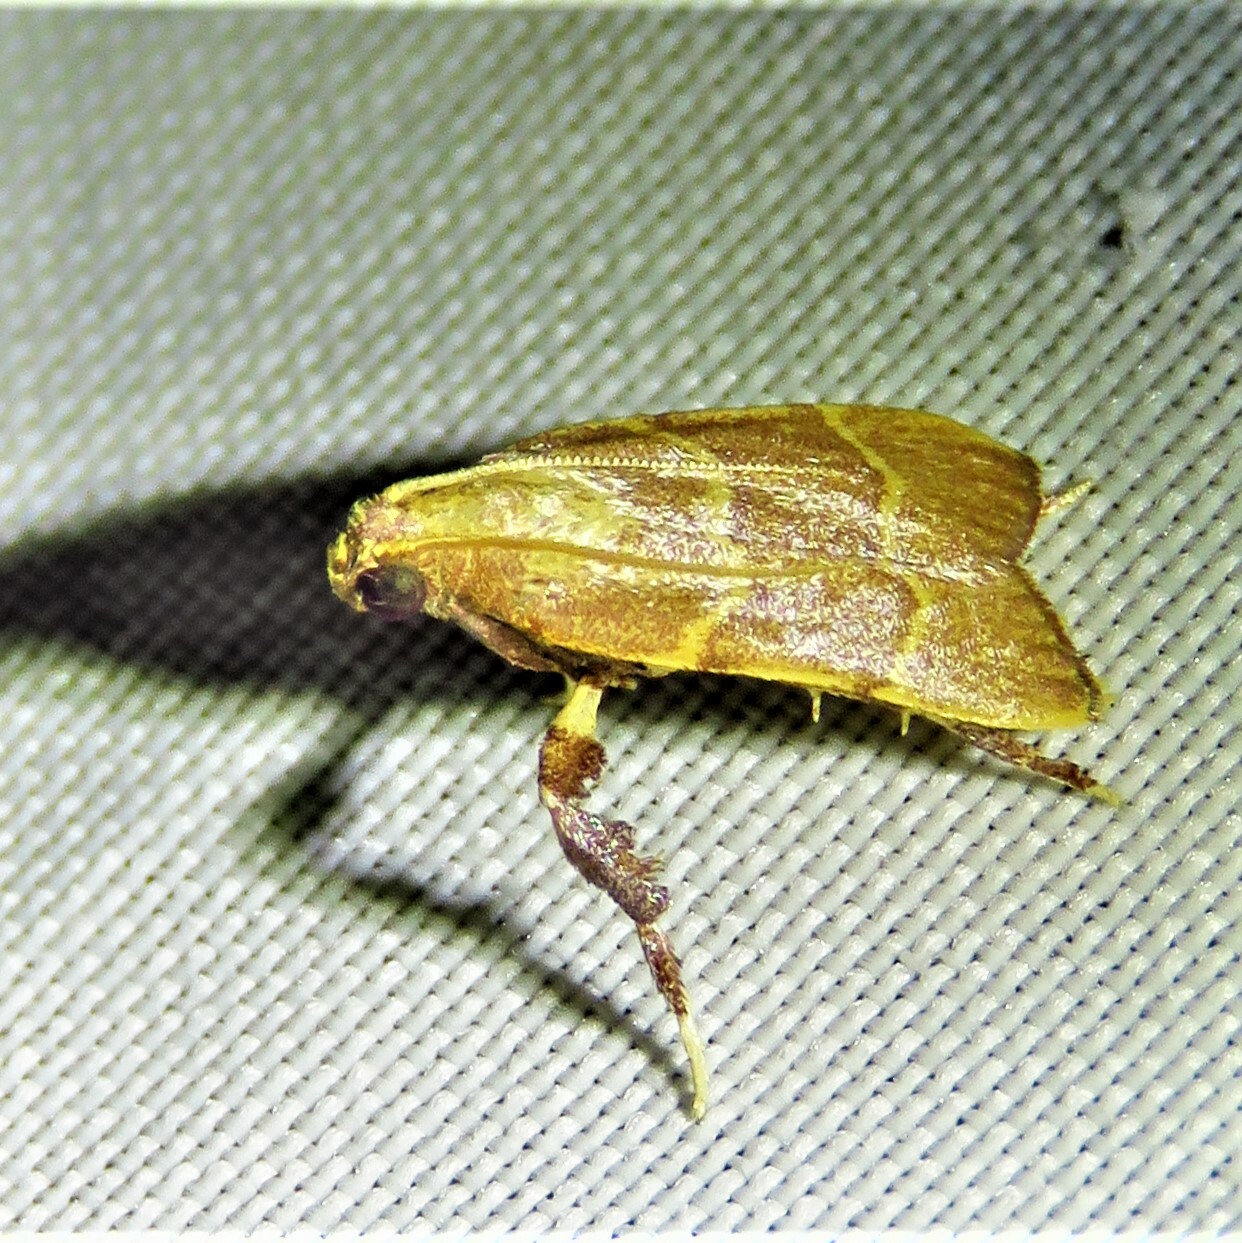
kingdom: Animalia
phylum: Arthropoda
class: Insecta
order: Lepidoptera
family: Pyralidae
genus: Parachma
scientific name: Parachma ochracealis
